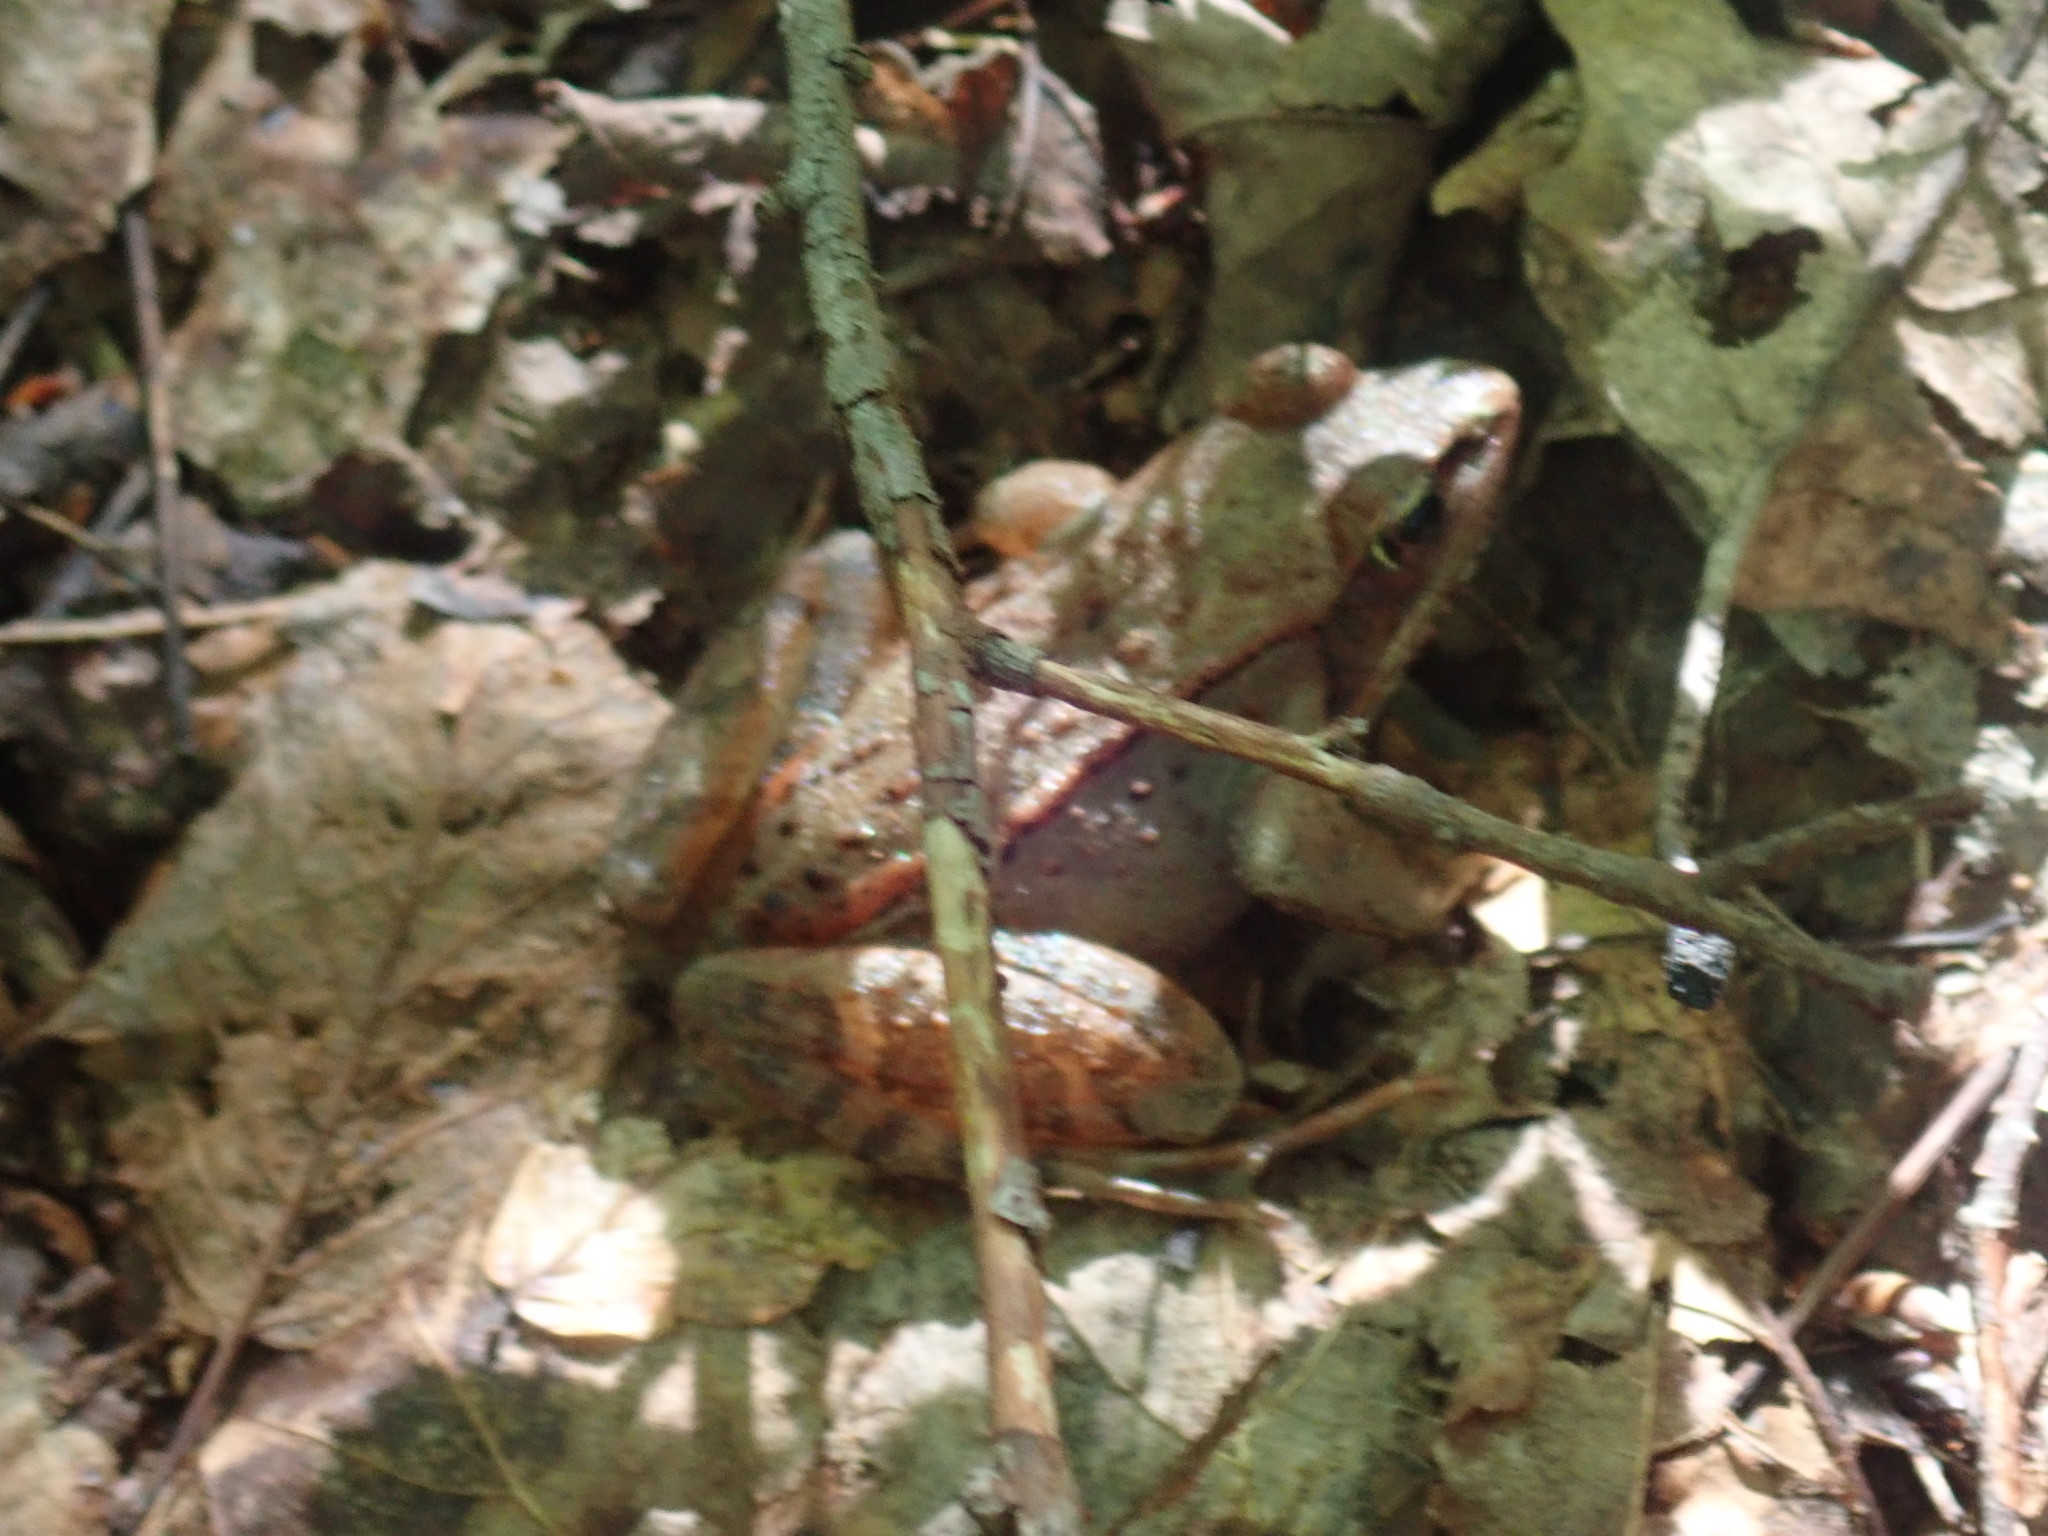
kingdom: Animalia
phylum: Chordata
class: Amphibia
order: Anura
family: Ranidae
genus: Lithobates
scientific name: Lithobates sylvaticus
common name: Wood frog
